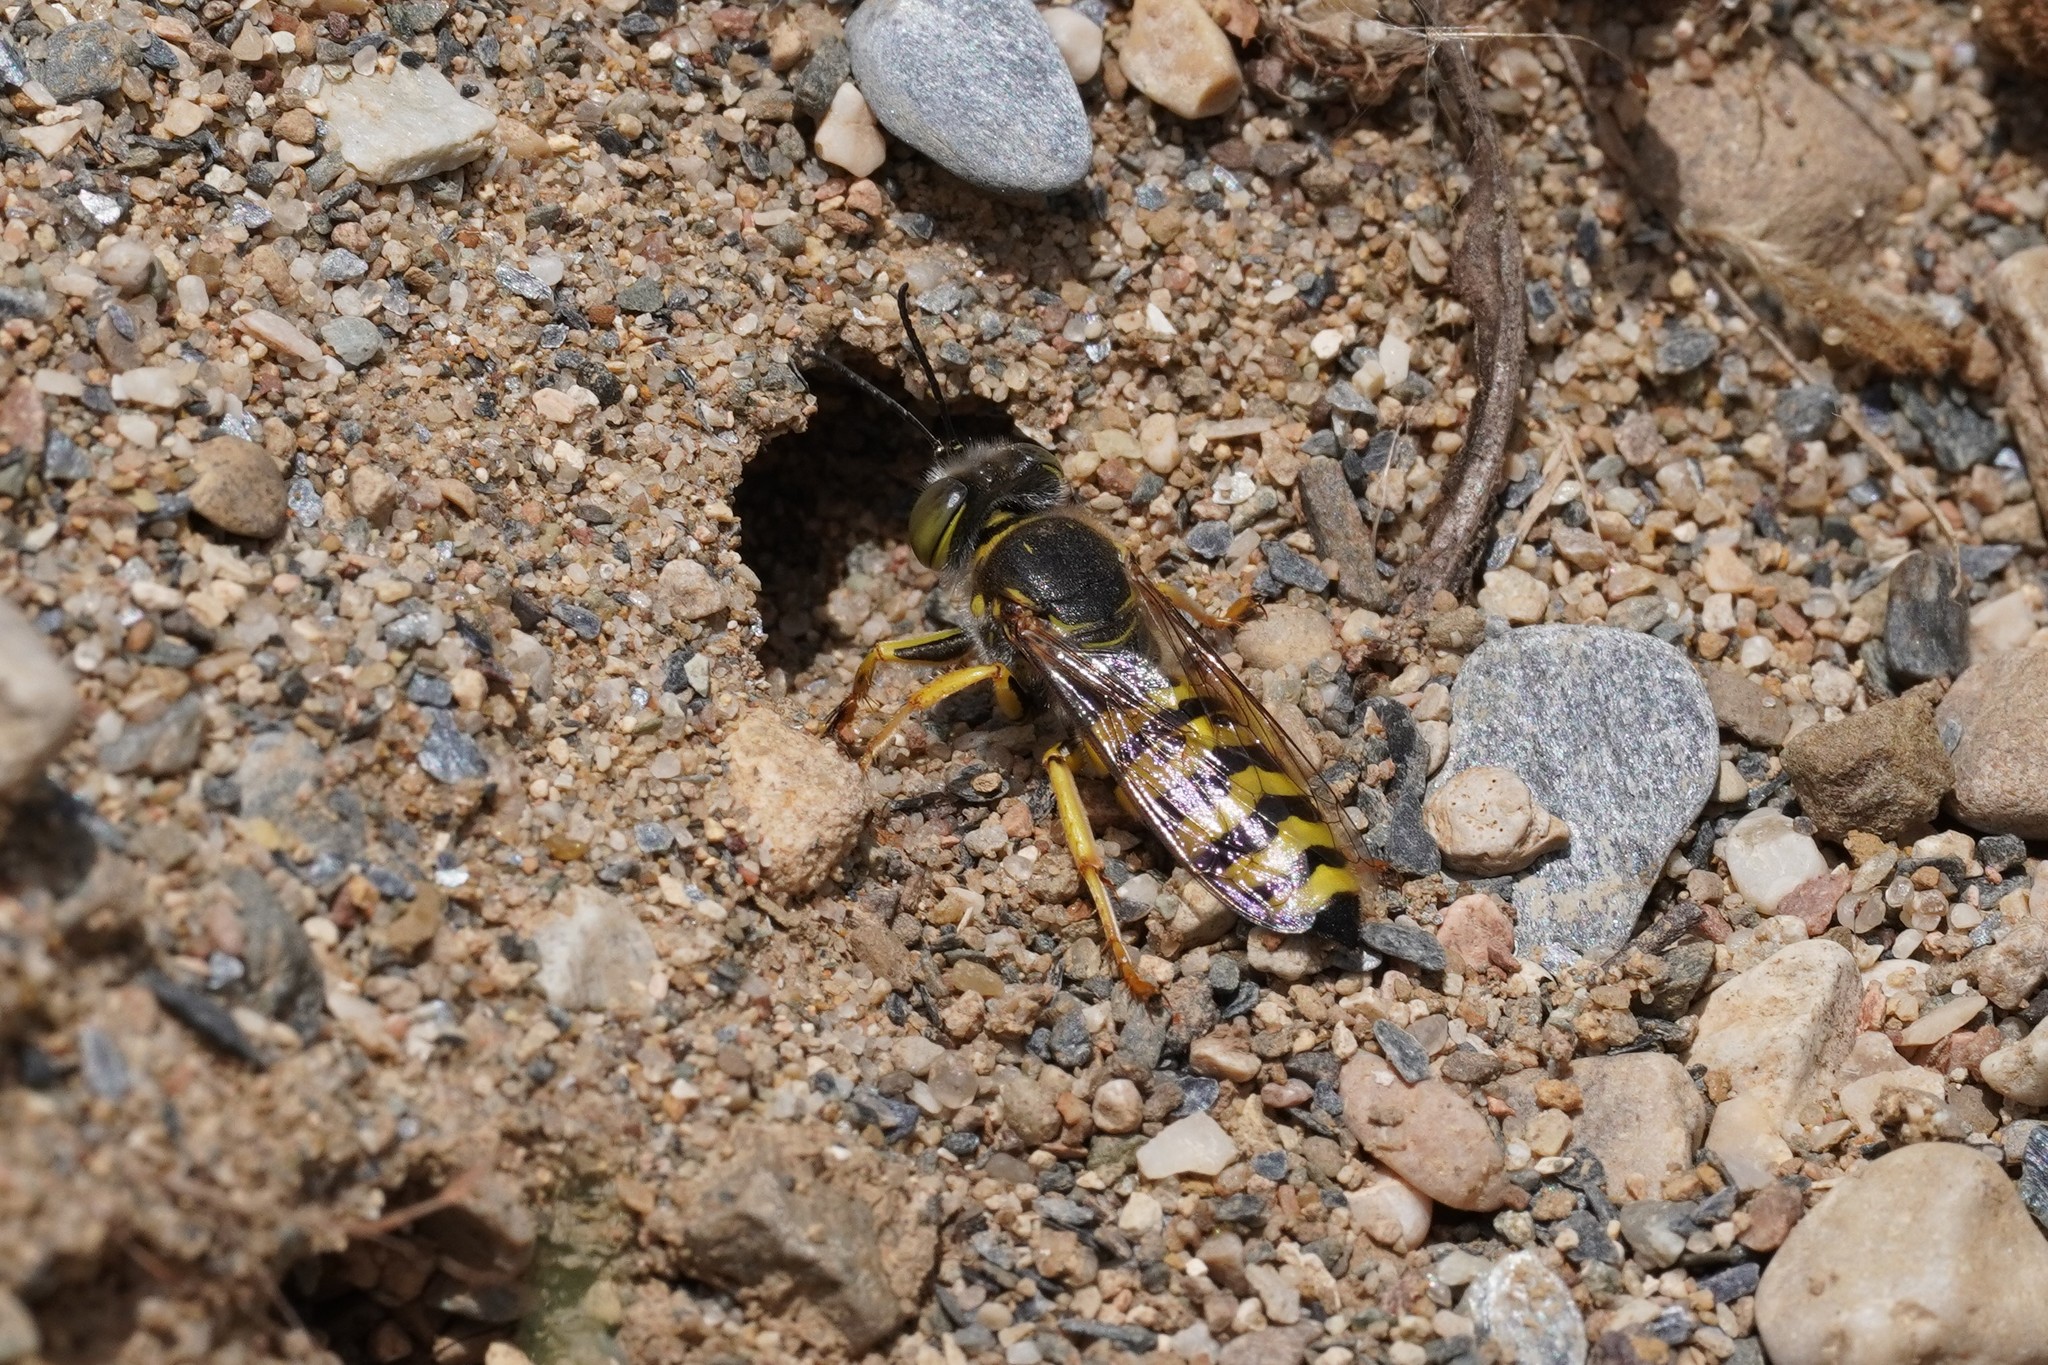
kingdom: Animalia
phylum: Arthropoda
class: Insecta
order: Hymenoptera
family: Crabronidae
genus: Bembix
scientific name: Bembix oculata
